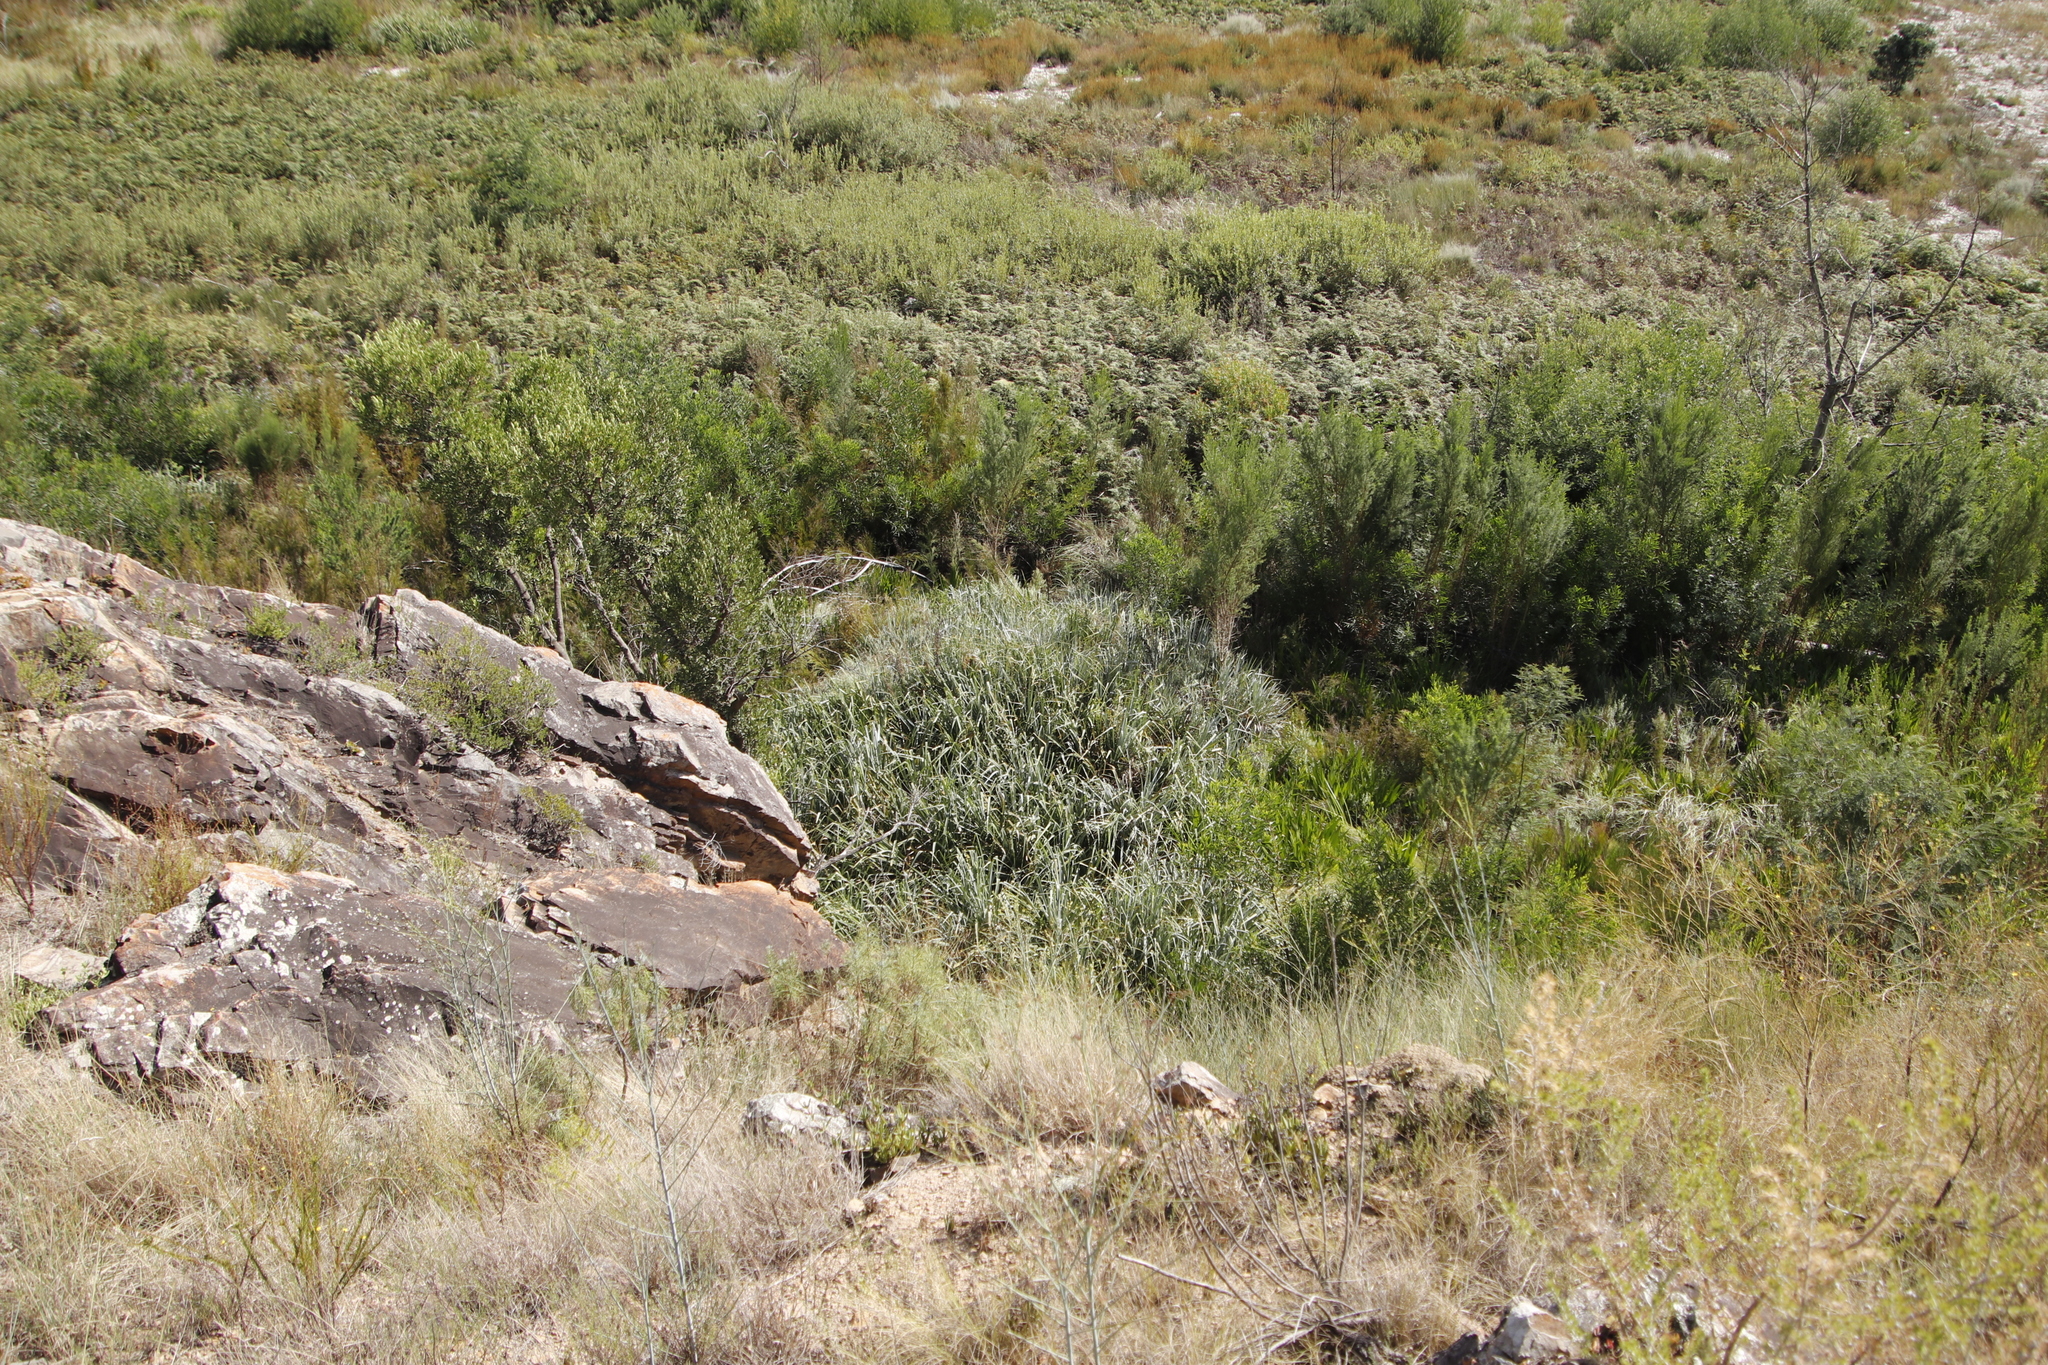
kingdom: Plantae
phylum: Tracheophyta
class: Liliopsida
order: Poales
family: Thurniaceae
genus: Prionium
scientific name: Prionium serratum
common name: Palmiet
